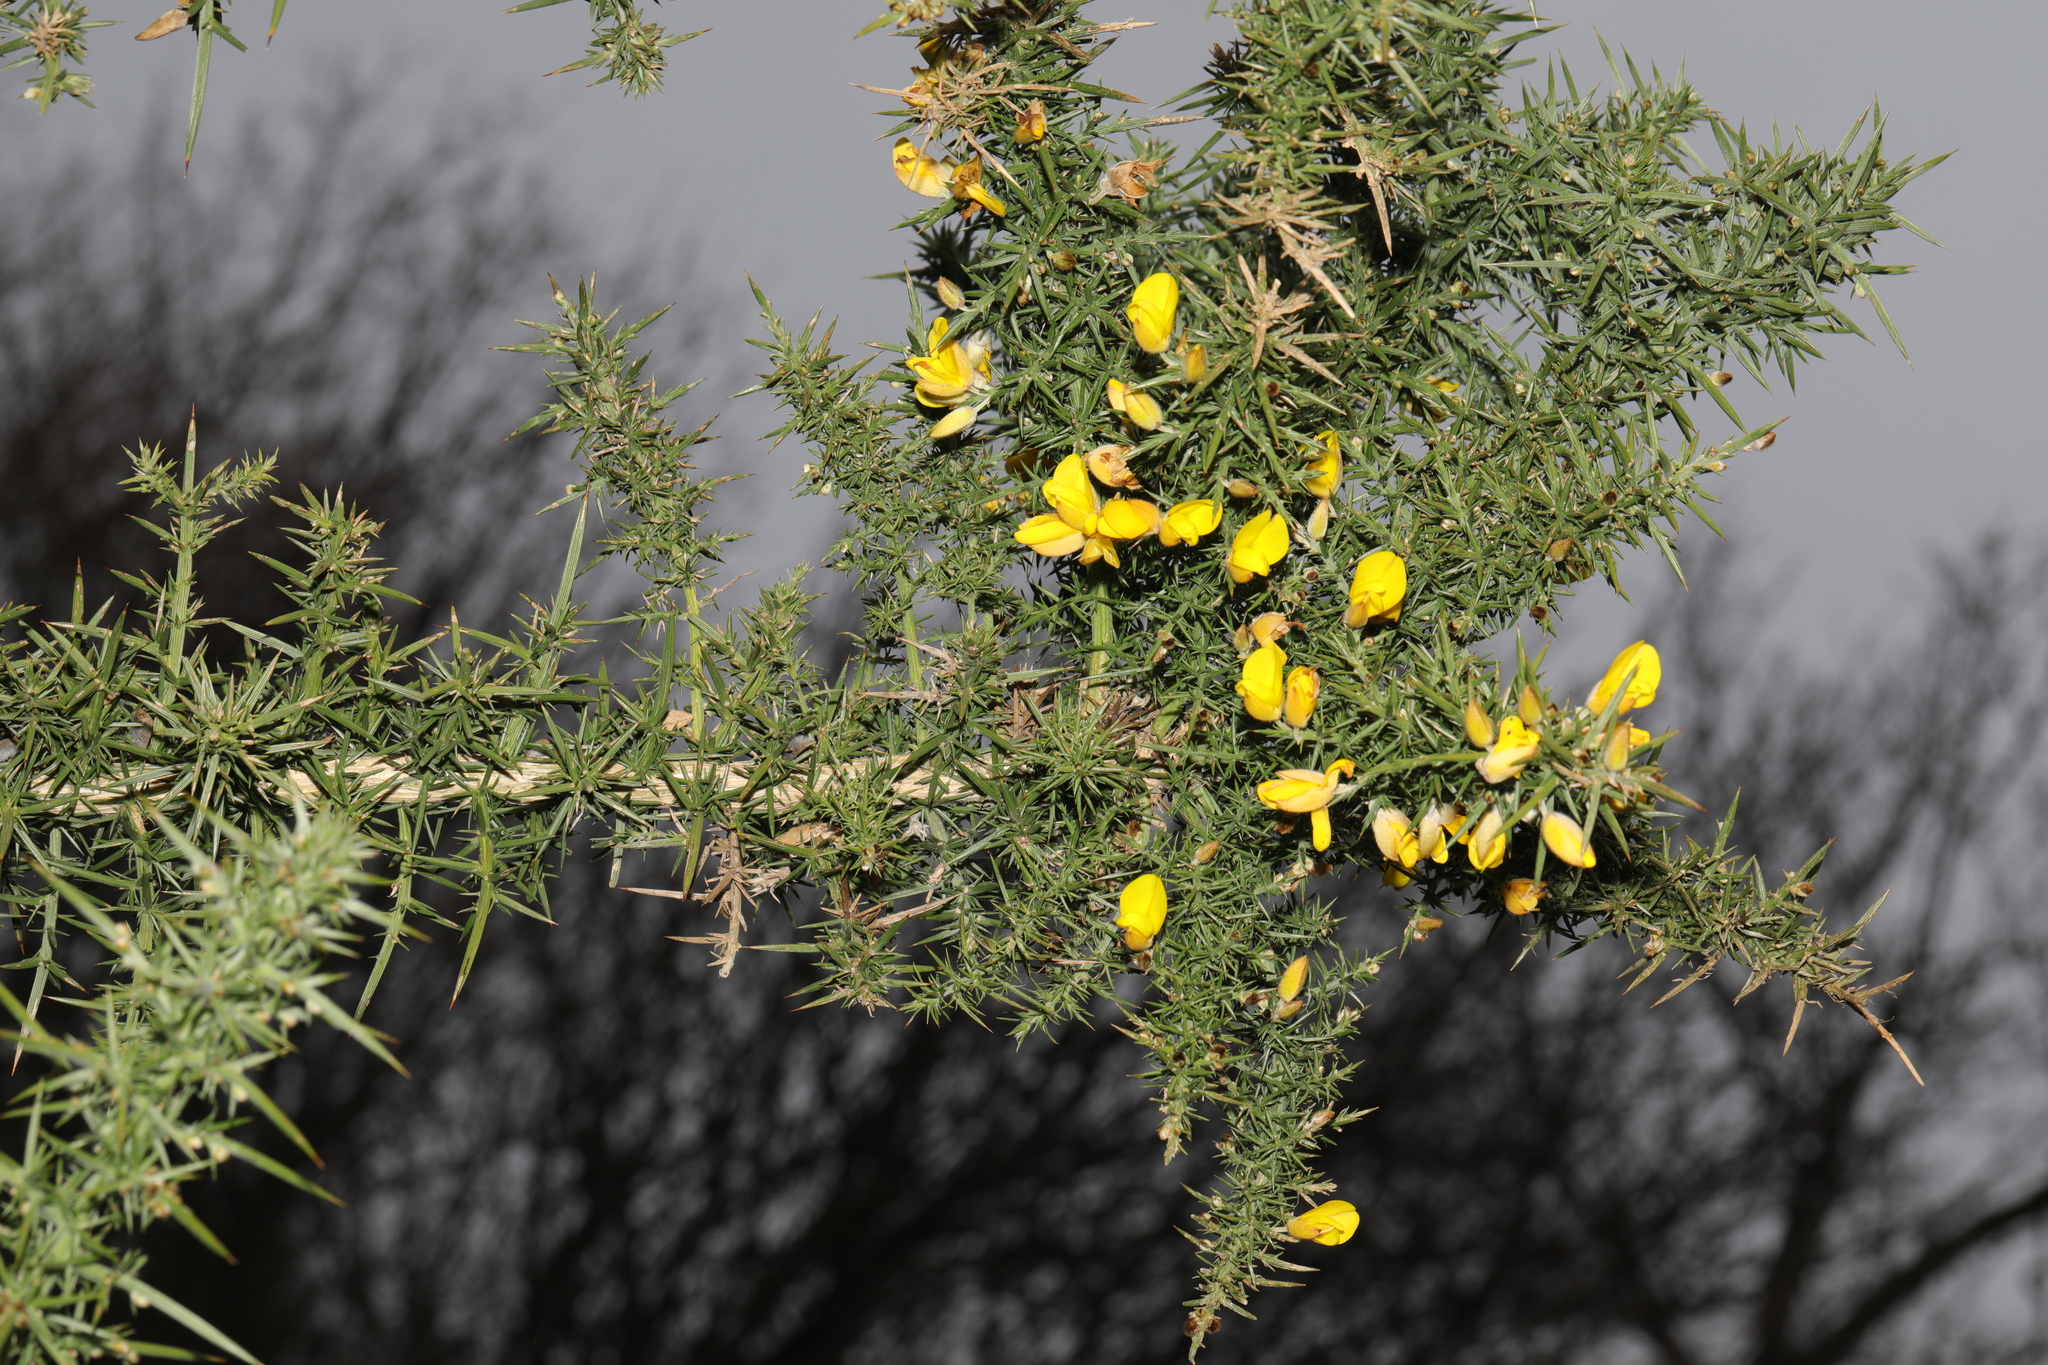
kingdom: Plantae
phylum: Tracheophyta
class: Magnoliopsida
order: Fabales
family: Fabaceae
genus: Ulex
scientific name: Ulex europaeus
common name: Common gorse
